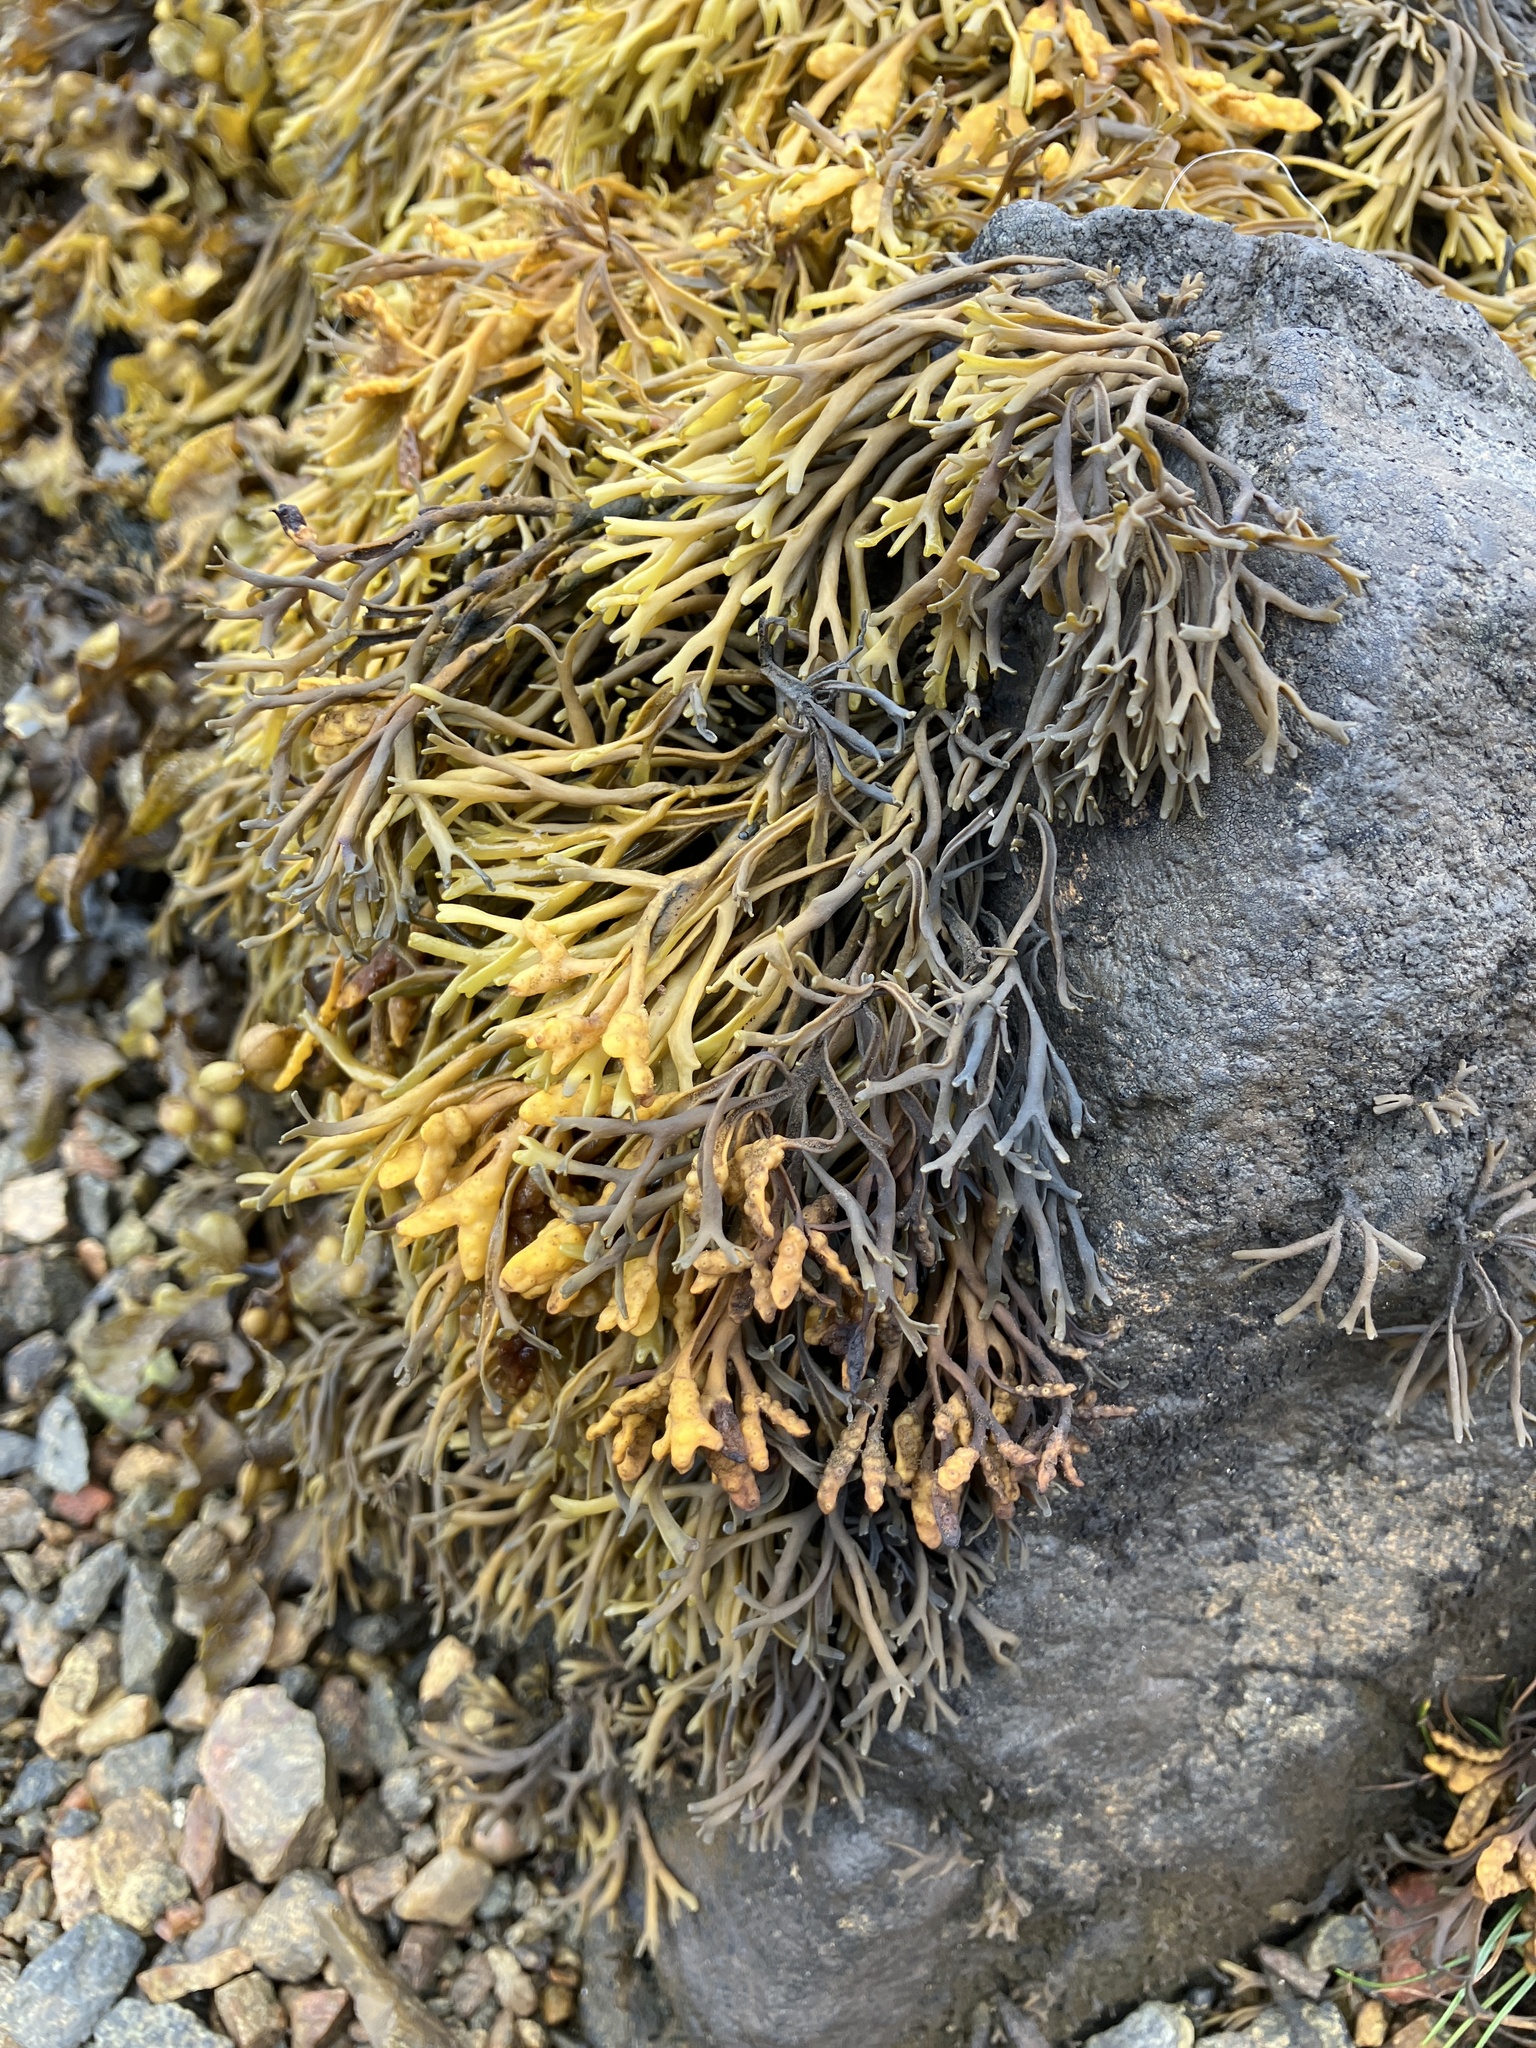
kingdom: Chromista
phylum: Ochrophyta
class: Phaeophyceae
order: Fucales
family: Fucaceae
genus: Pelvetia
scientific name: Pelvetia canaliculata
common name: Channelled wrack
